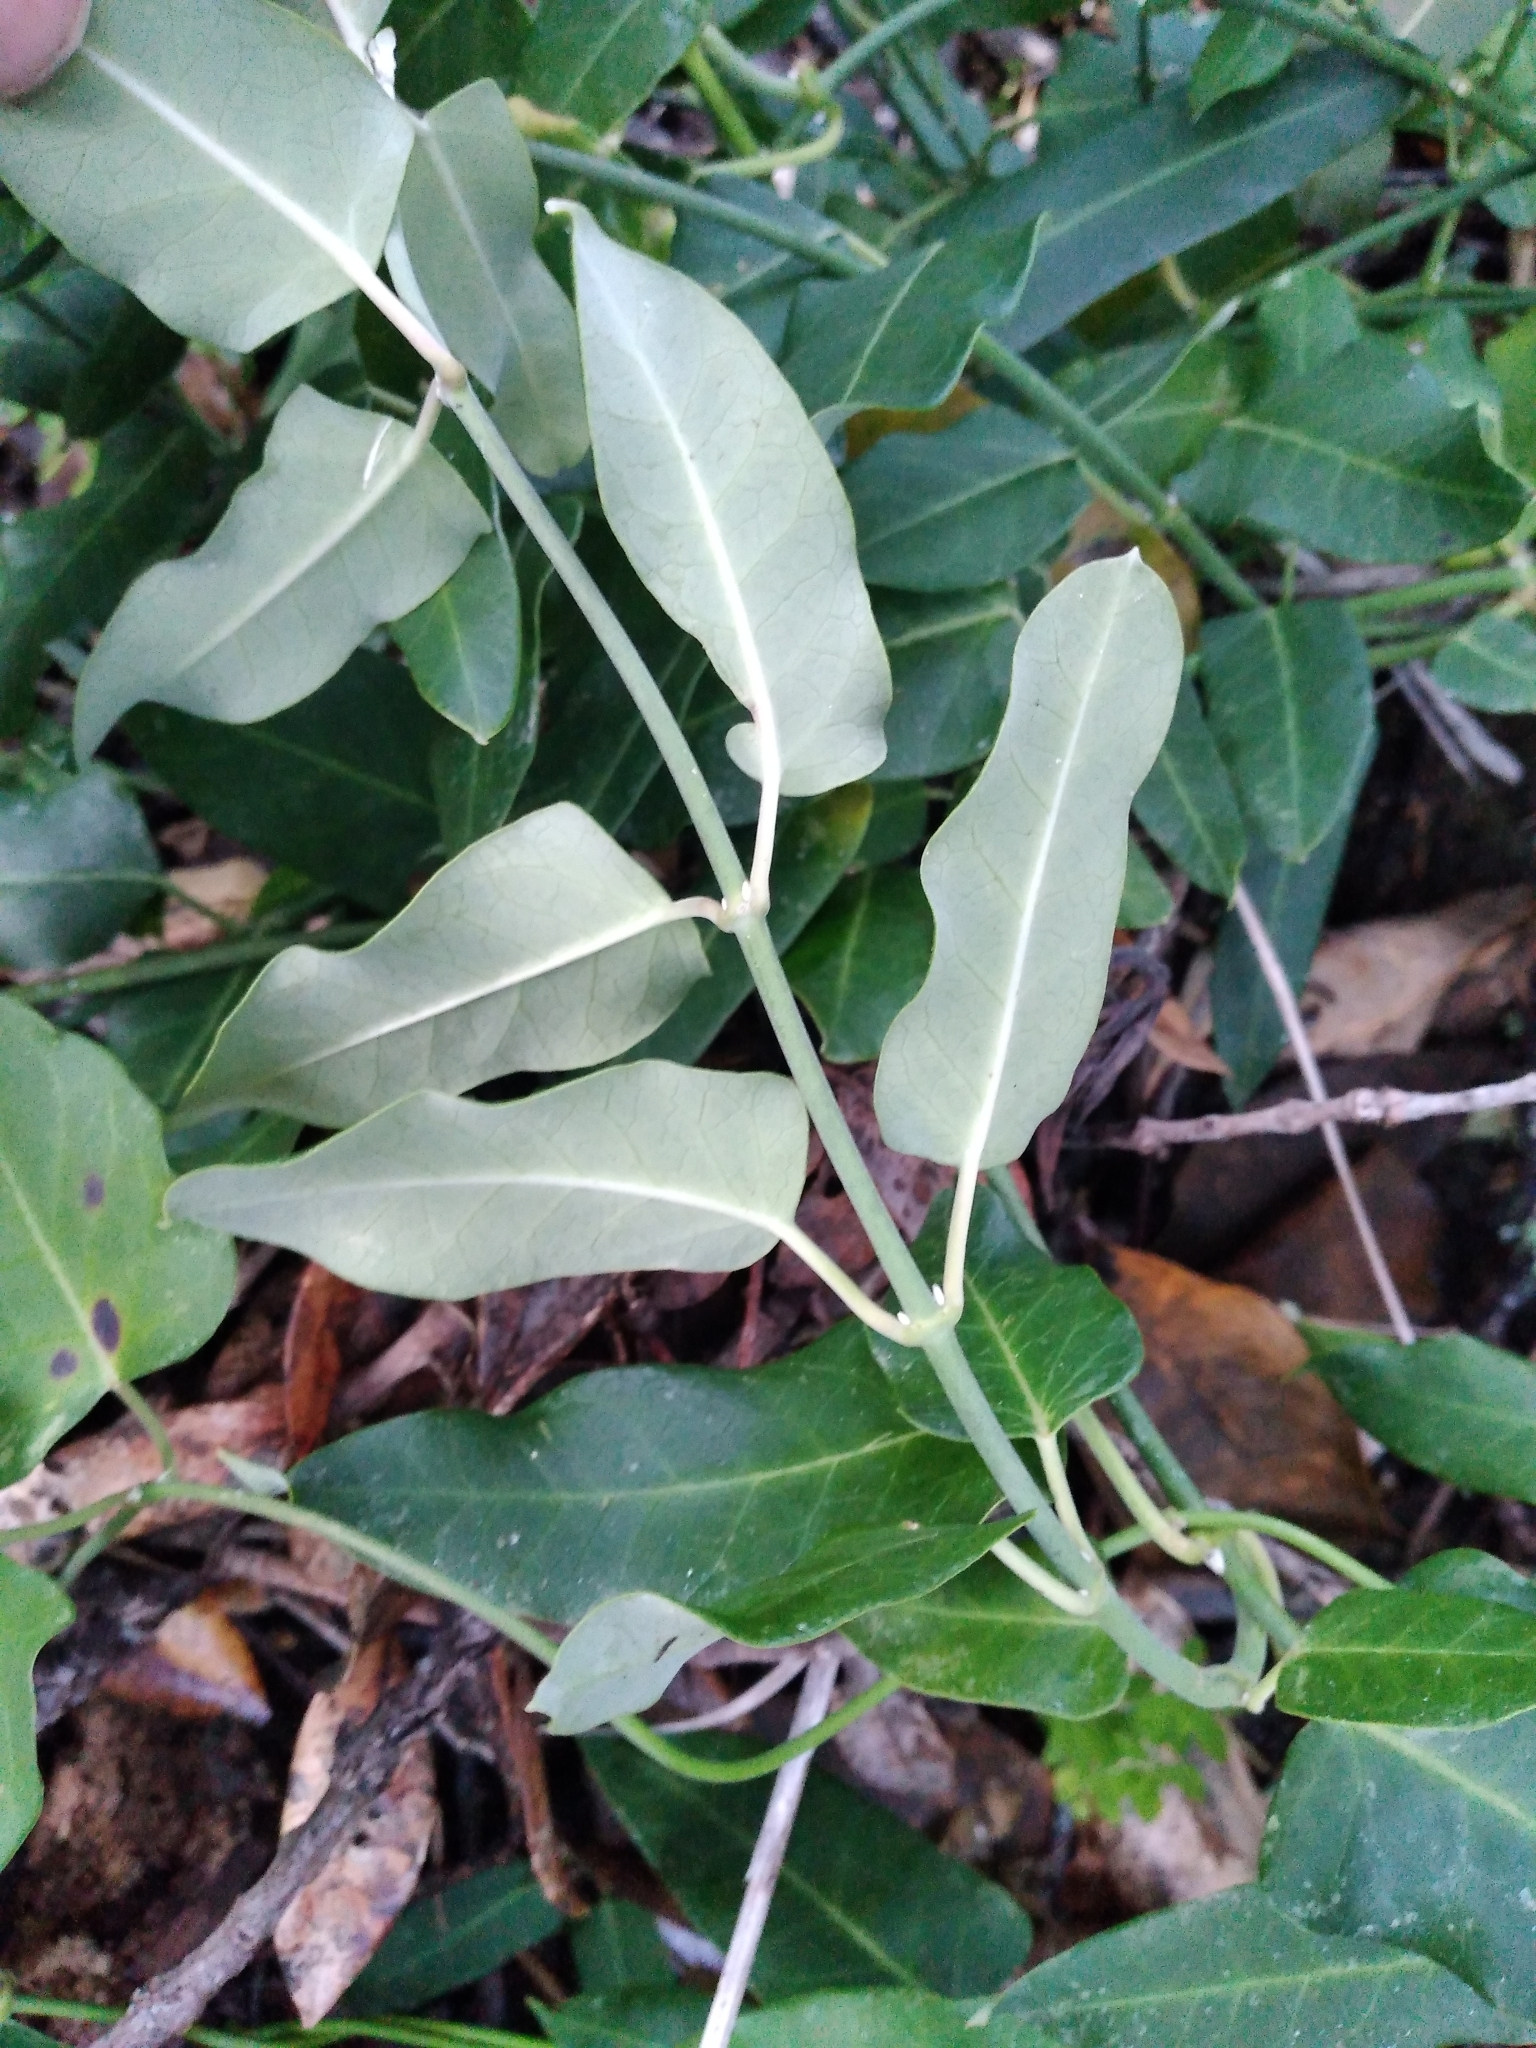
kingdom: Plantae
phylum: Tracheophyta
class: Magnoliopsida
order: Gentianales
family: Apocynaceae
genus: Araujia
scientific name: Araujia sericifera
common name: White bladderflower
